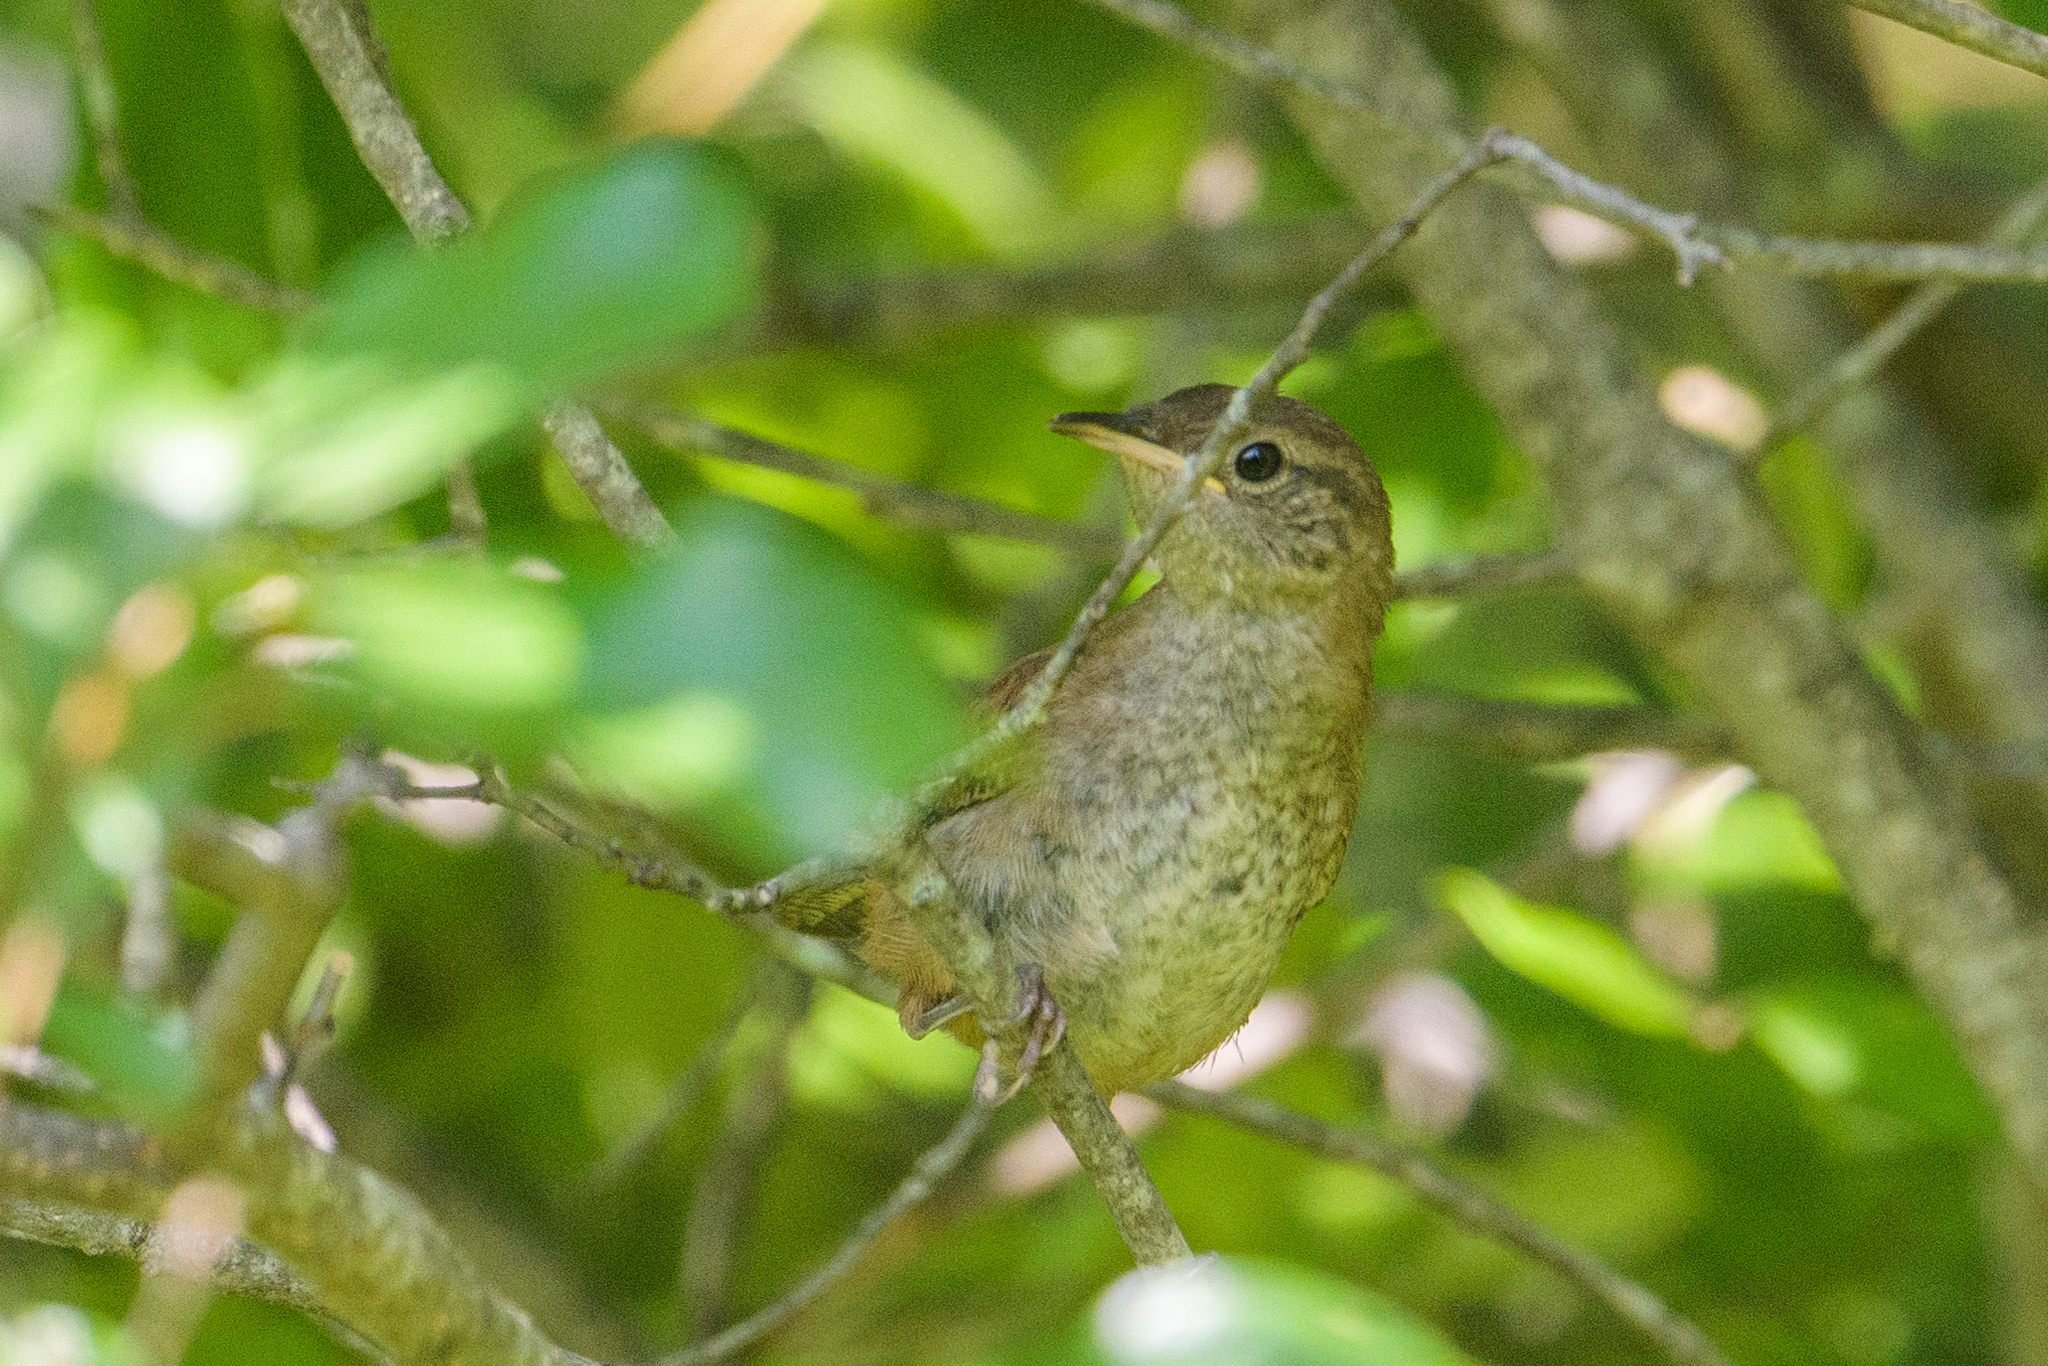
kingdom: Animalia
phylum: Chordata
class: Aves
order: Passeriformes
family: Troglodytidae
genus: Troglodytes
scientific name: Troglodytes aedon
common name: House wren
